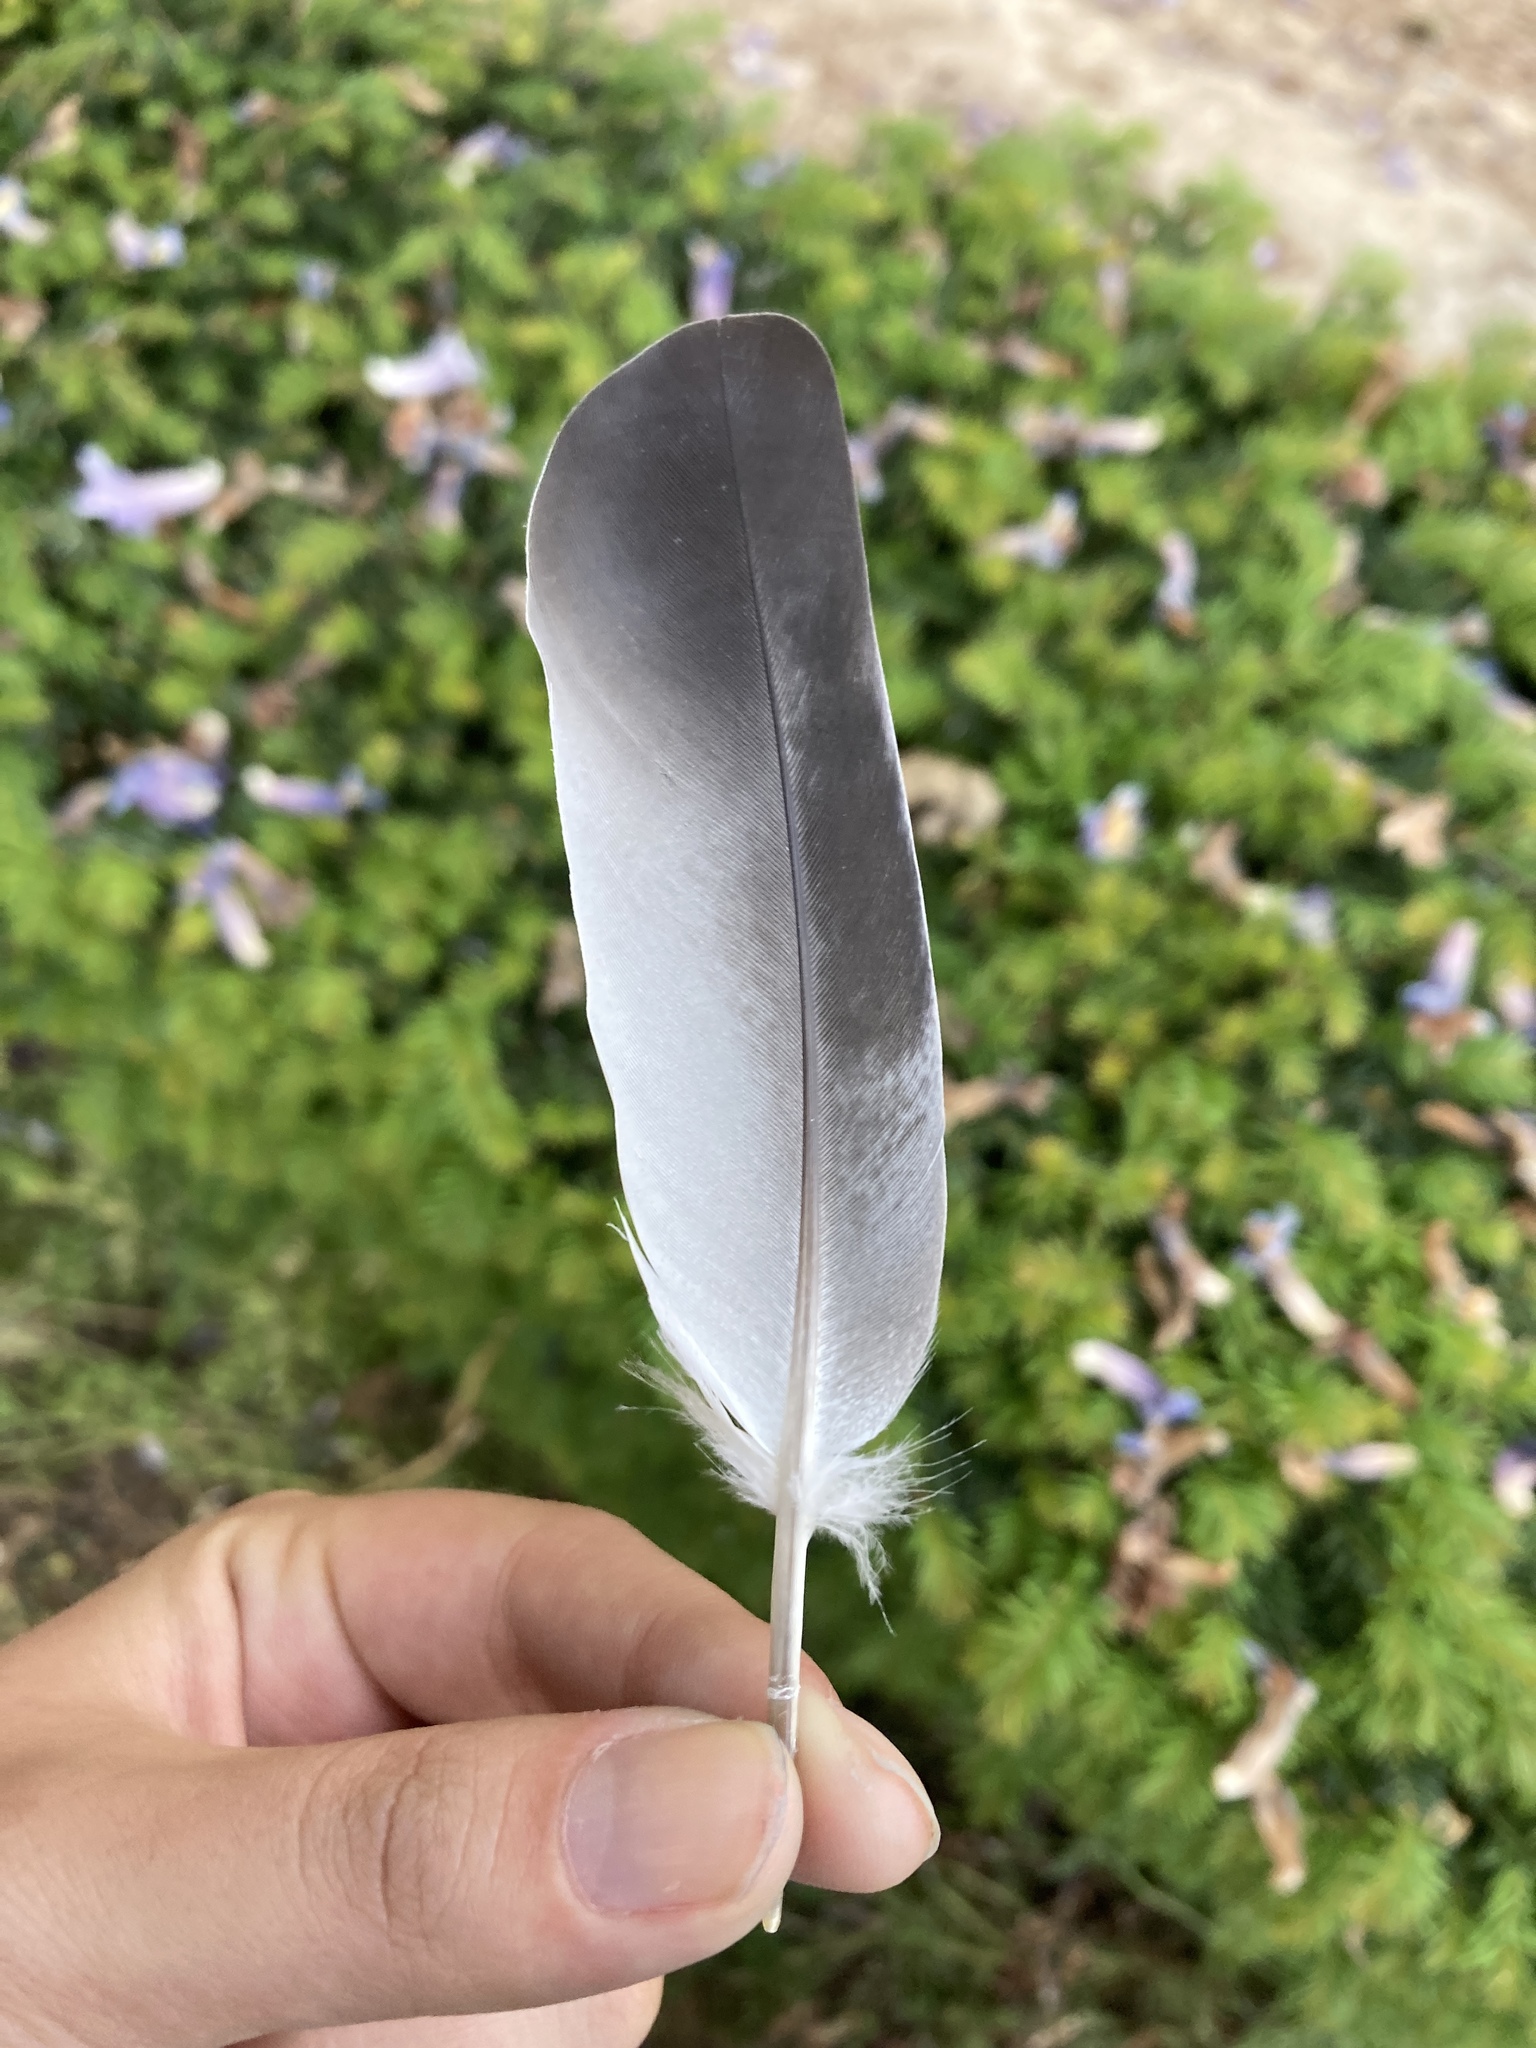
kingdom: Animalia
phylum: Chordata
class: Aves
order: Columbiformes
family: Columbidae
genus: Columba
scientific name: Columba livia
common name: Rock pigeon
